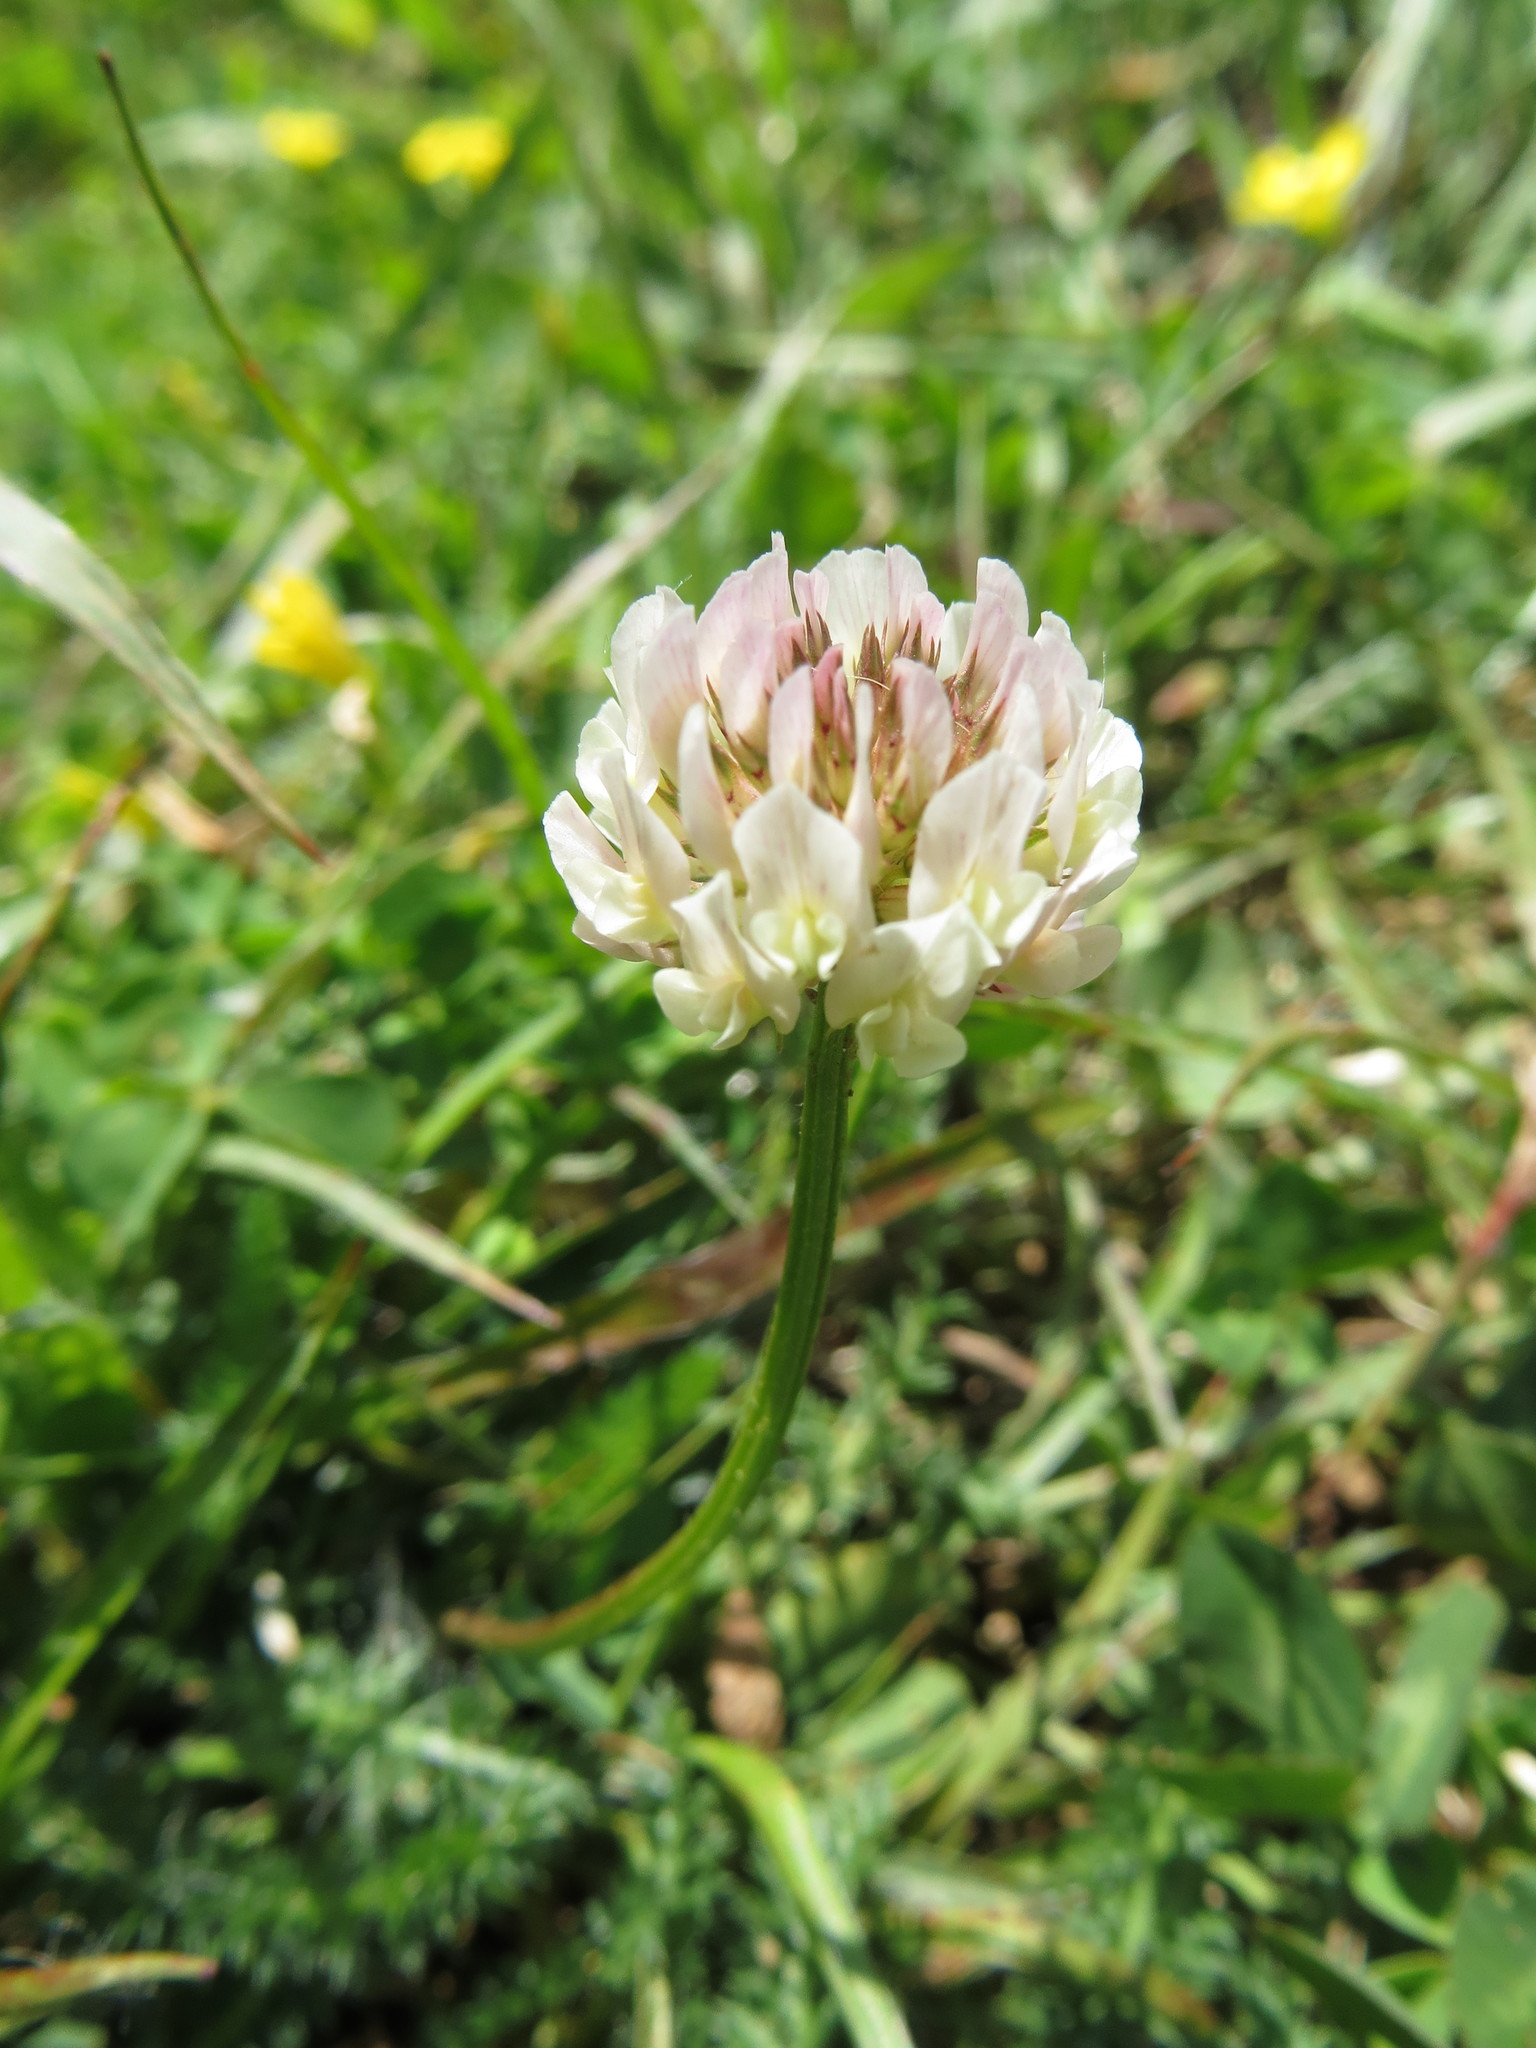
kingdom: Plantae
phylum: Tracheophyta
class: Magnoliopsida
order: Fabales
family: Fabaceae
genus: Trifolium
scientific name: Trifolium repens
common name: White clover
